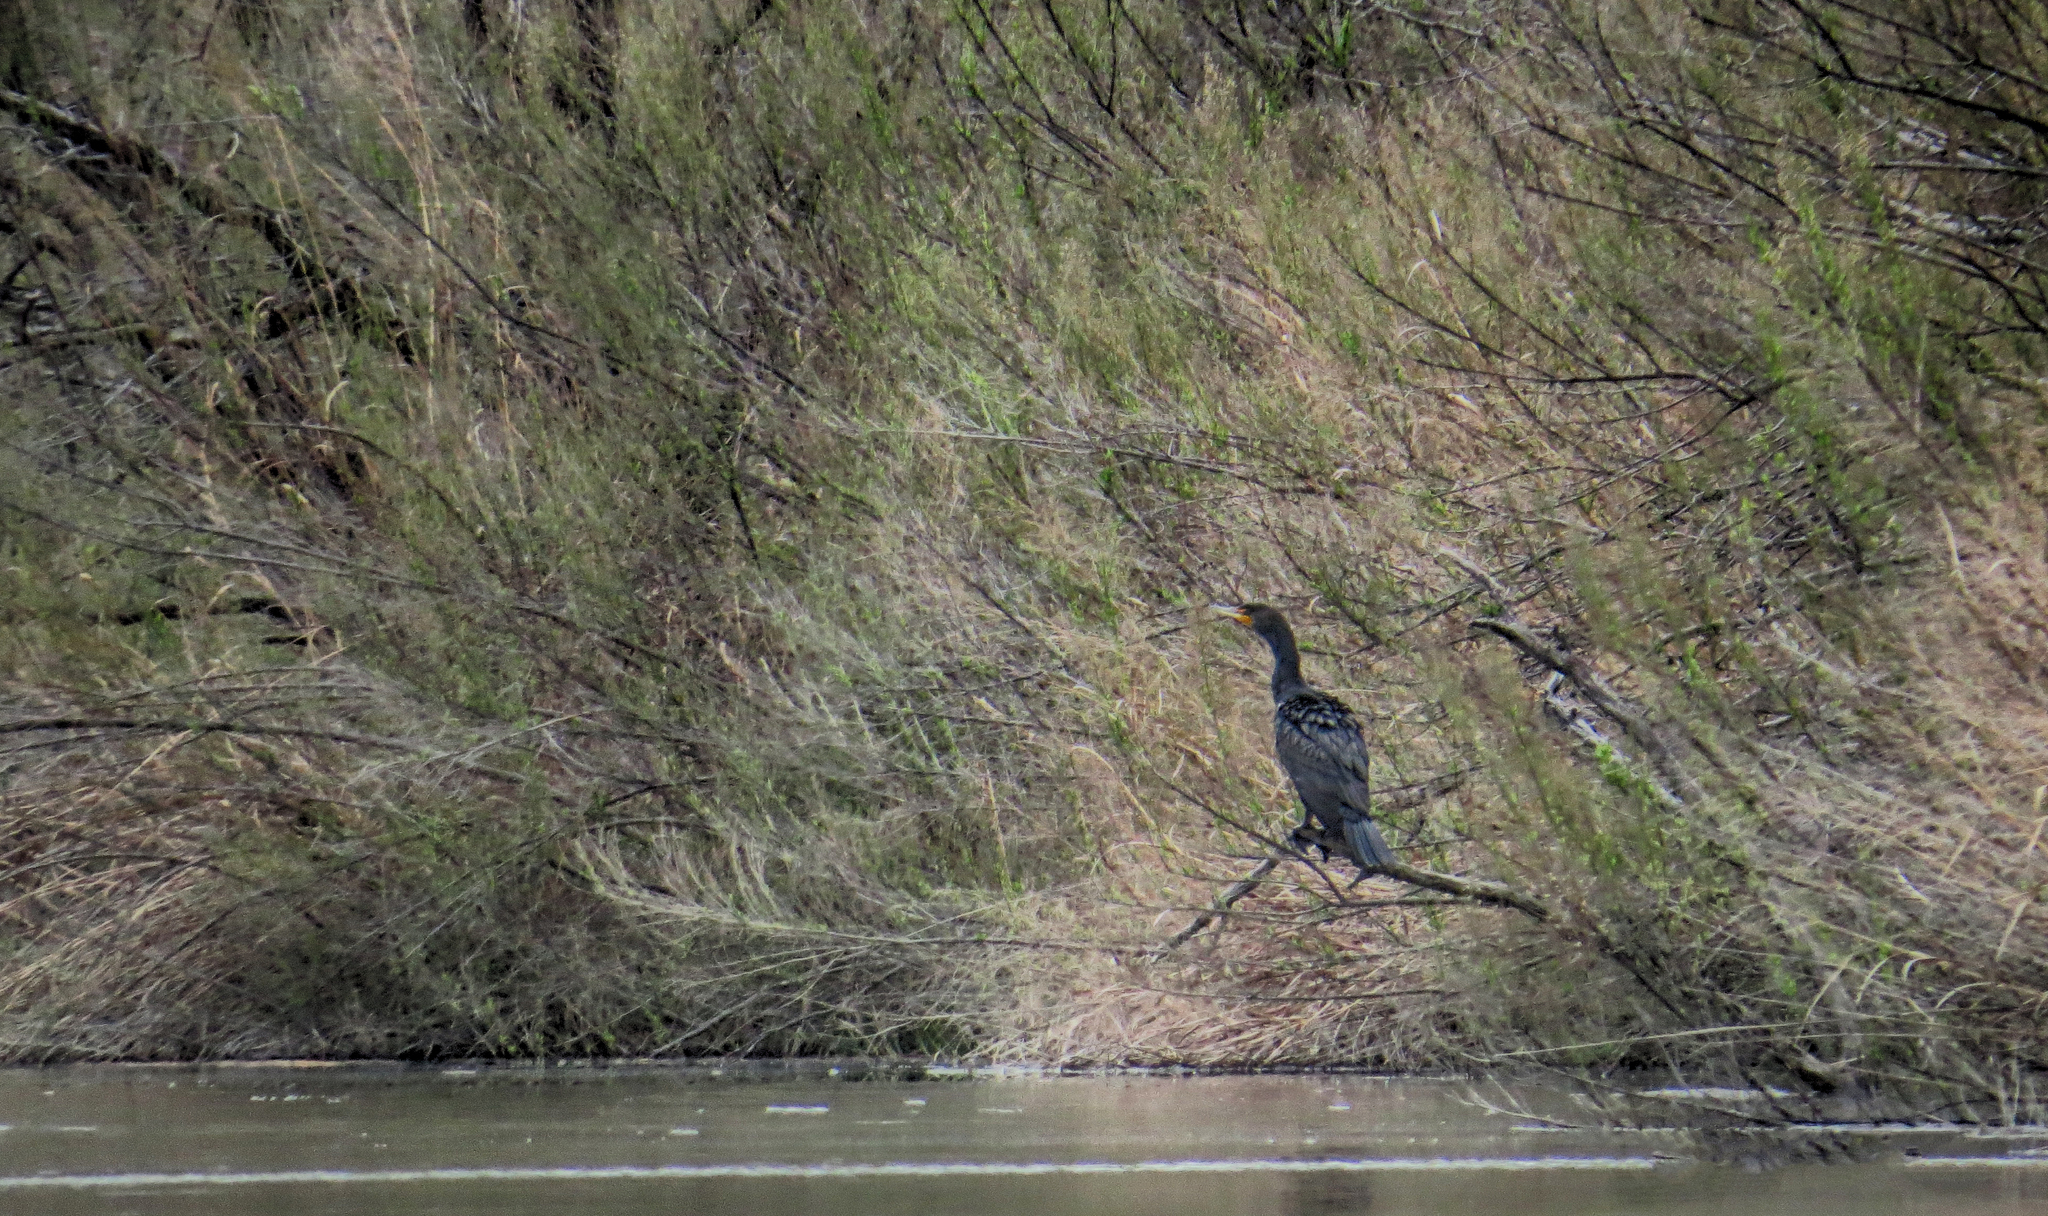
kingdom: Animalia
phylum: Chordata
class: Aves
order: Suliformes
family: Phalacrocoracidae
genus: Phalacrocorax
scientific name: Phalacrocorax auritus
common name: Double-crested cormorant
